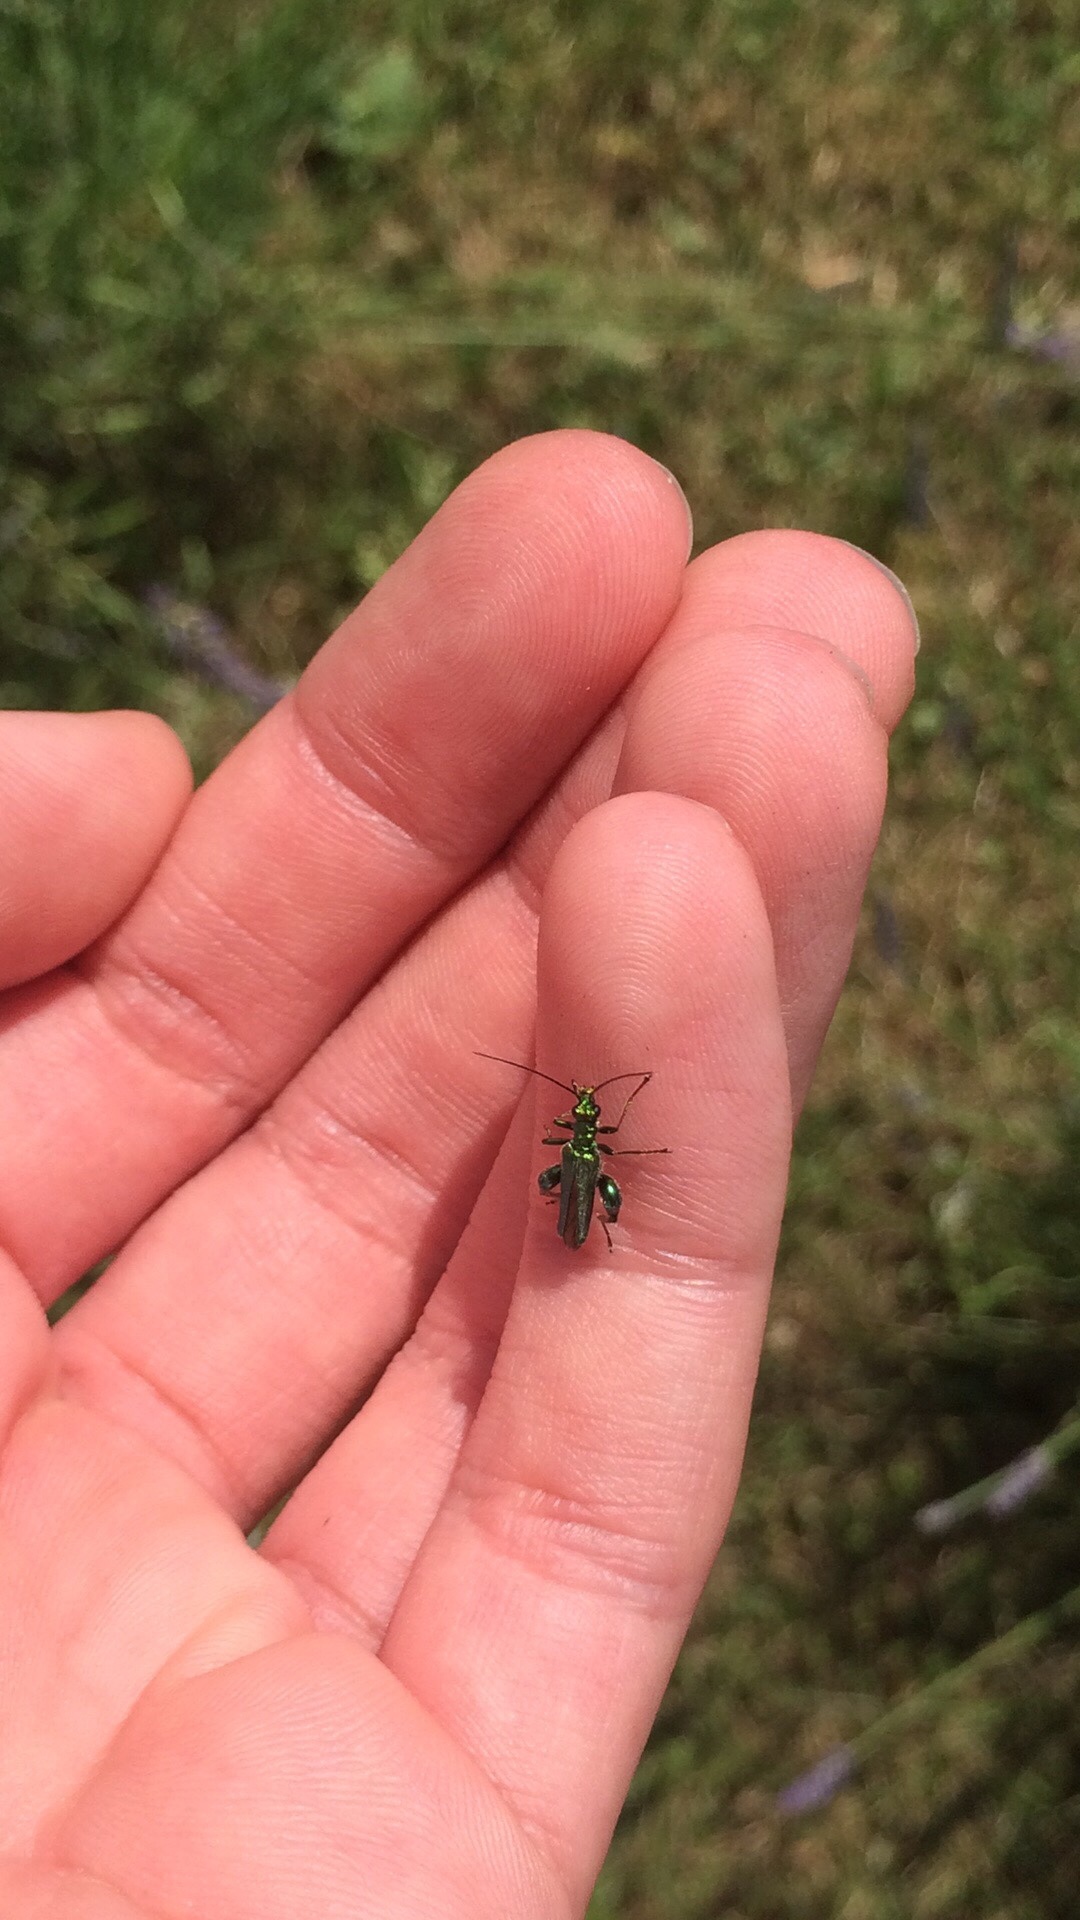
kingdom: Animalia
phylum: Arthropoda
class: Insecta
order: Coleoptera
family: Oedemeridae
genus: Oedemera
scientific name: Oedemera nobilis
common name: Swollen-thighed beetle
